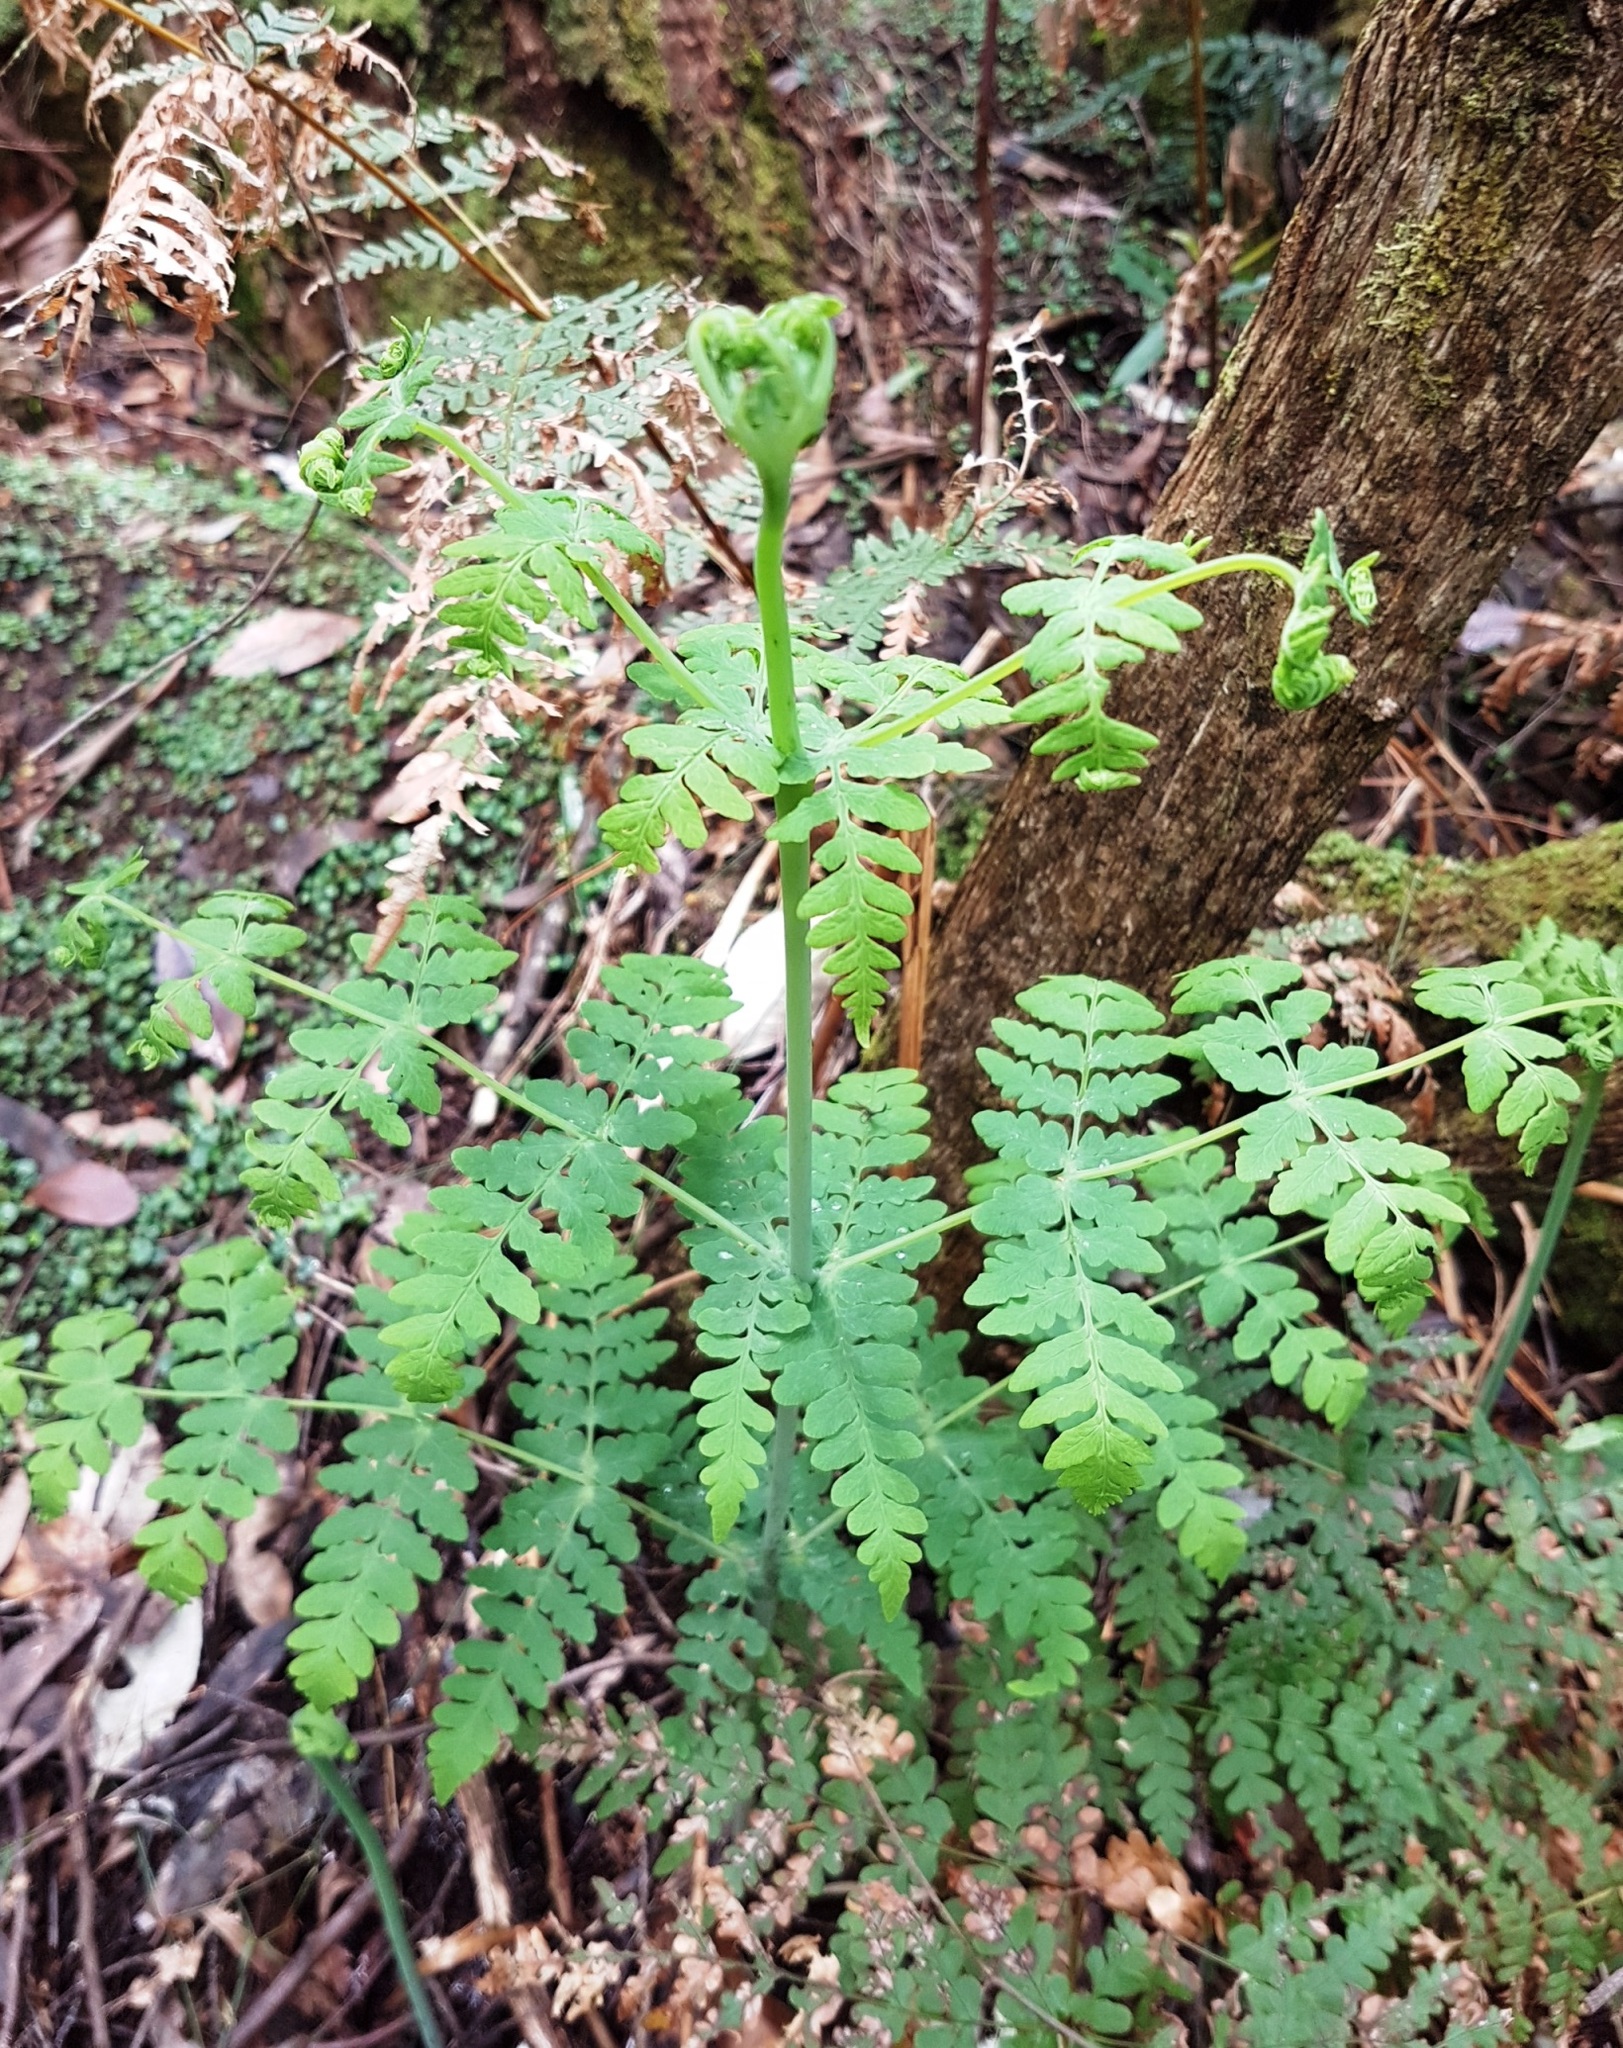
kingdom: Plantae
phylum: Tracheophyta
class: Polypodiopsida
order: Polypodiales
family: Dennstaedtiaceae
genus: Histiopteris
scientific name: Histiopteris incisa
